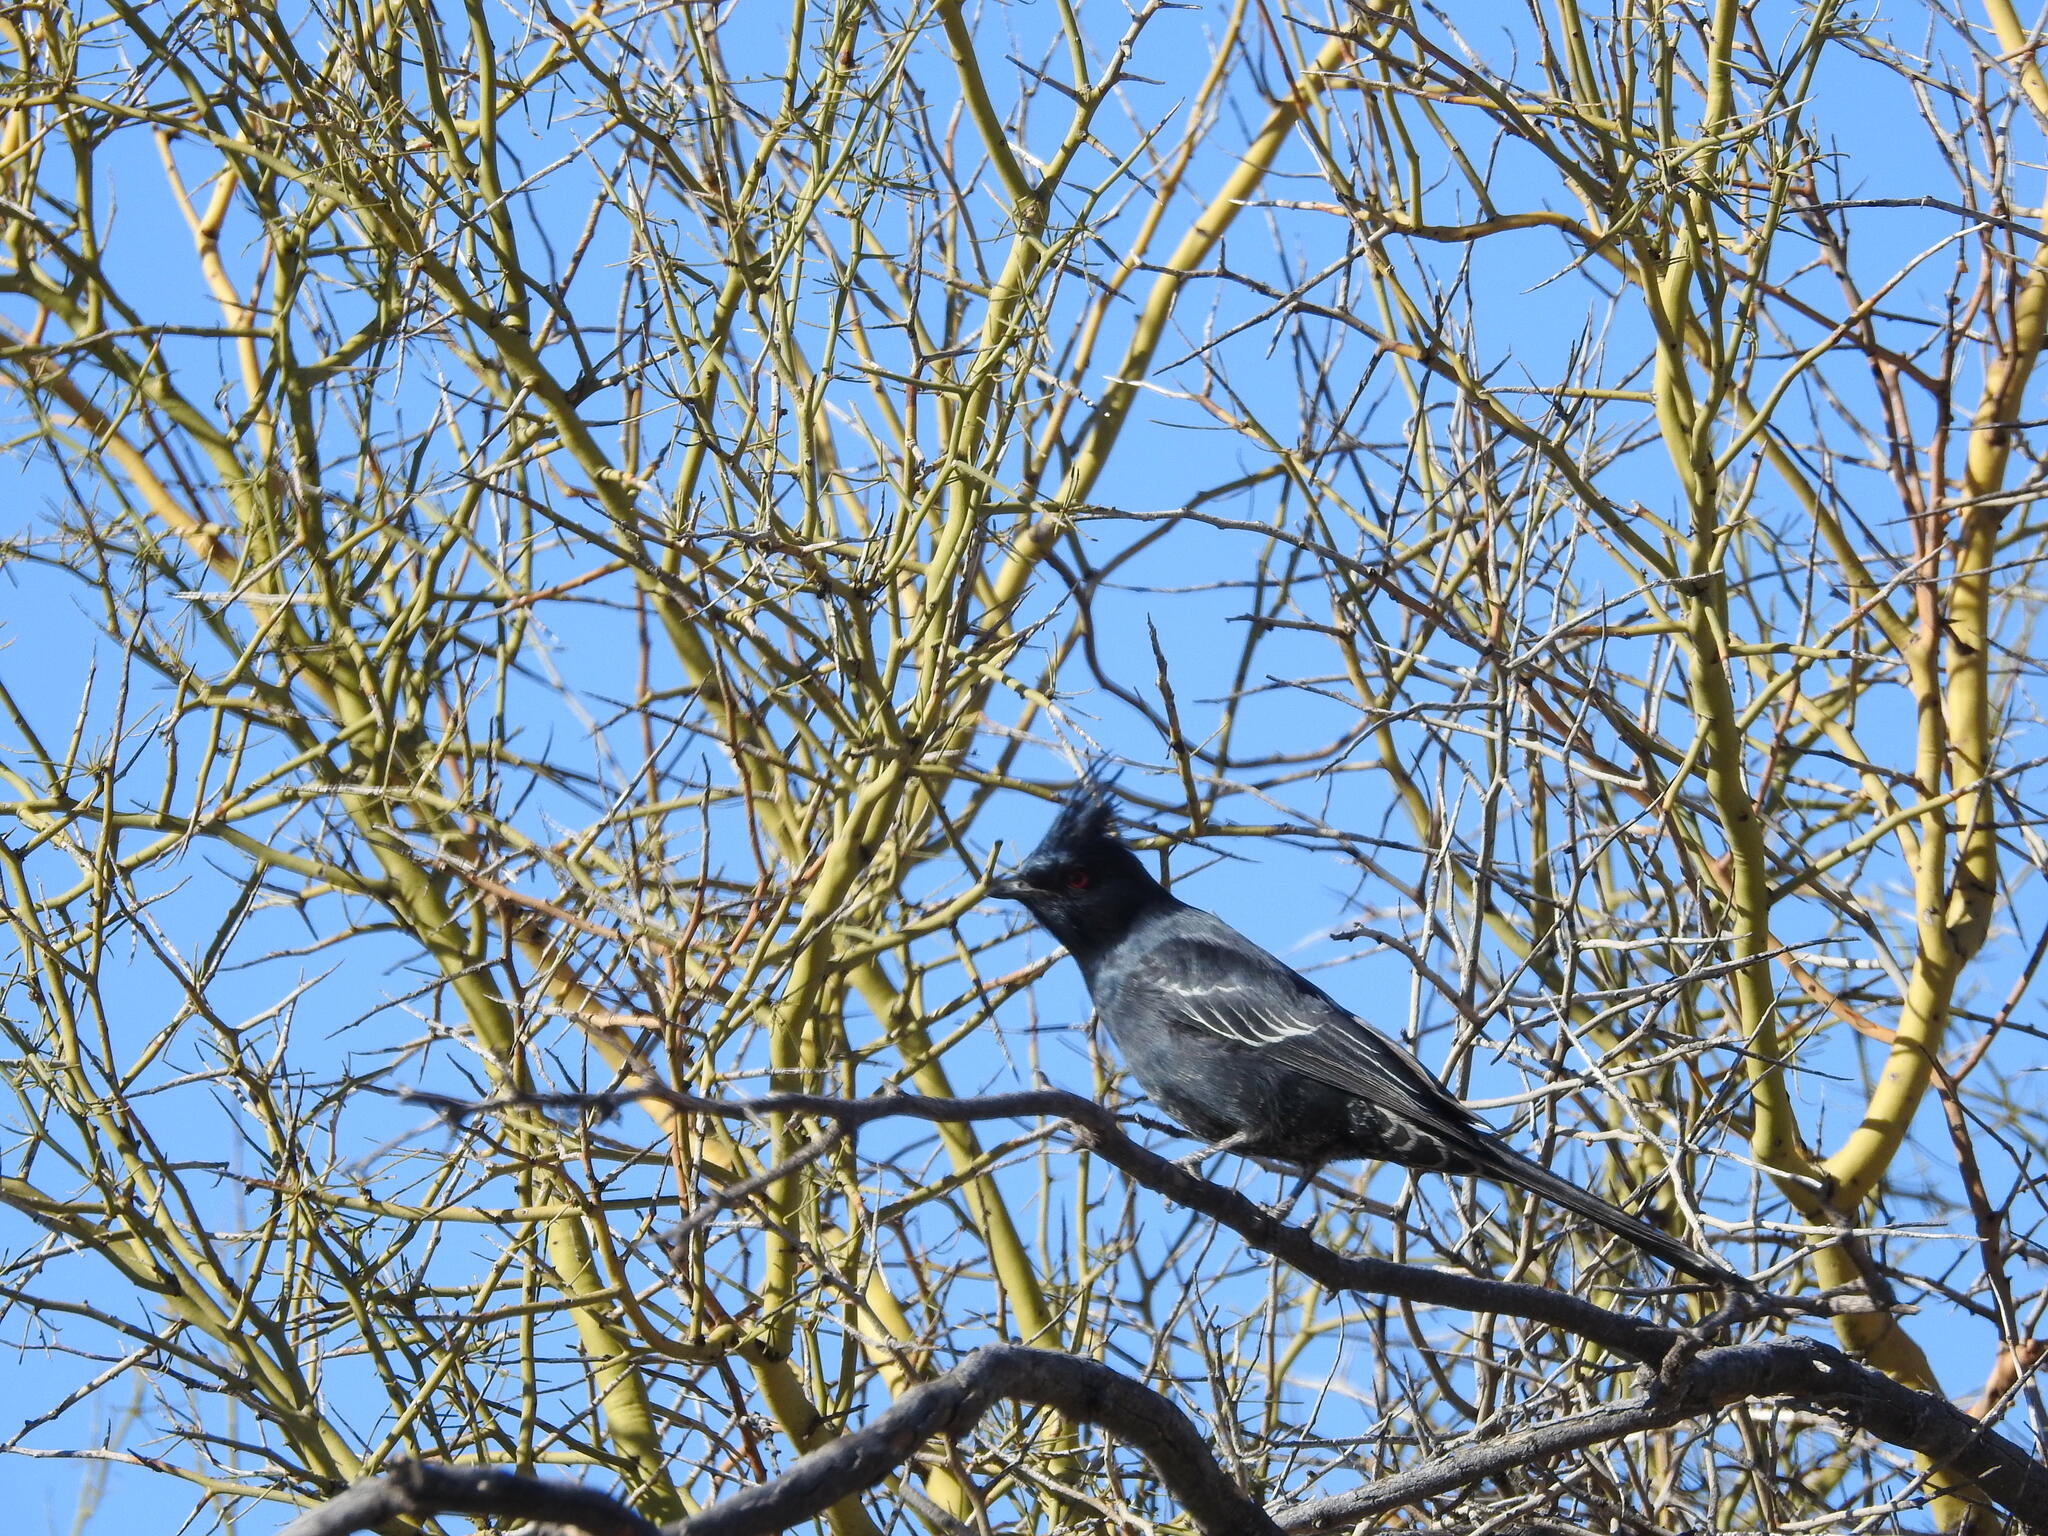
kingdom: Animalia
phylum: Chordata
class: Aves
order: Passeriformes
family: Ptilogonatidae
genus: Phainopepla
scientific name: Phainopepla nitens
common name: Phainopepla
